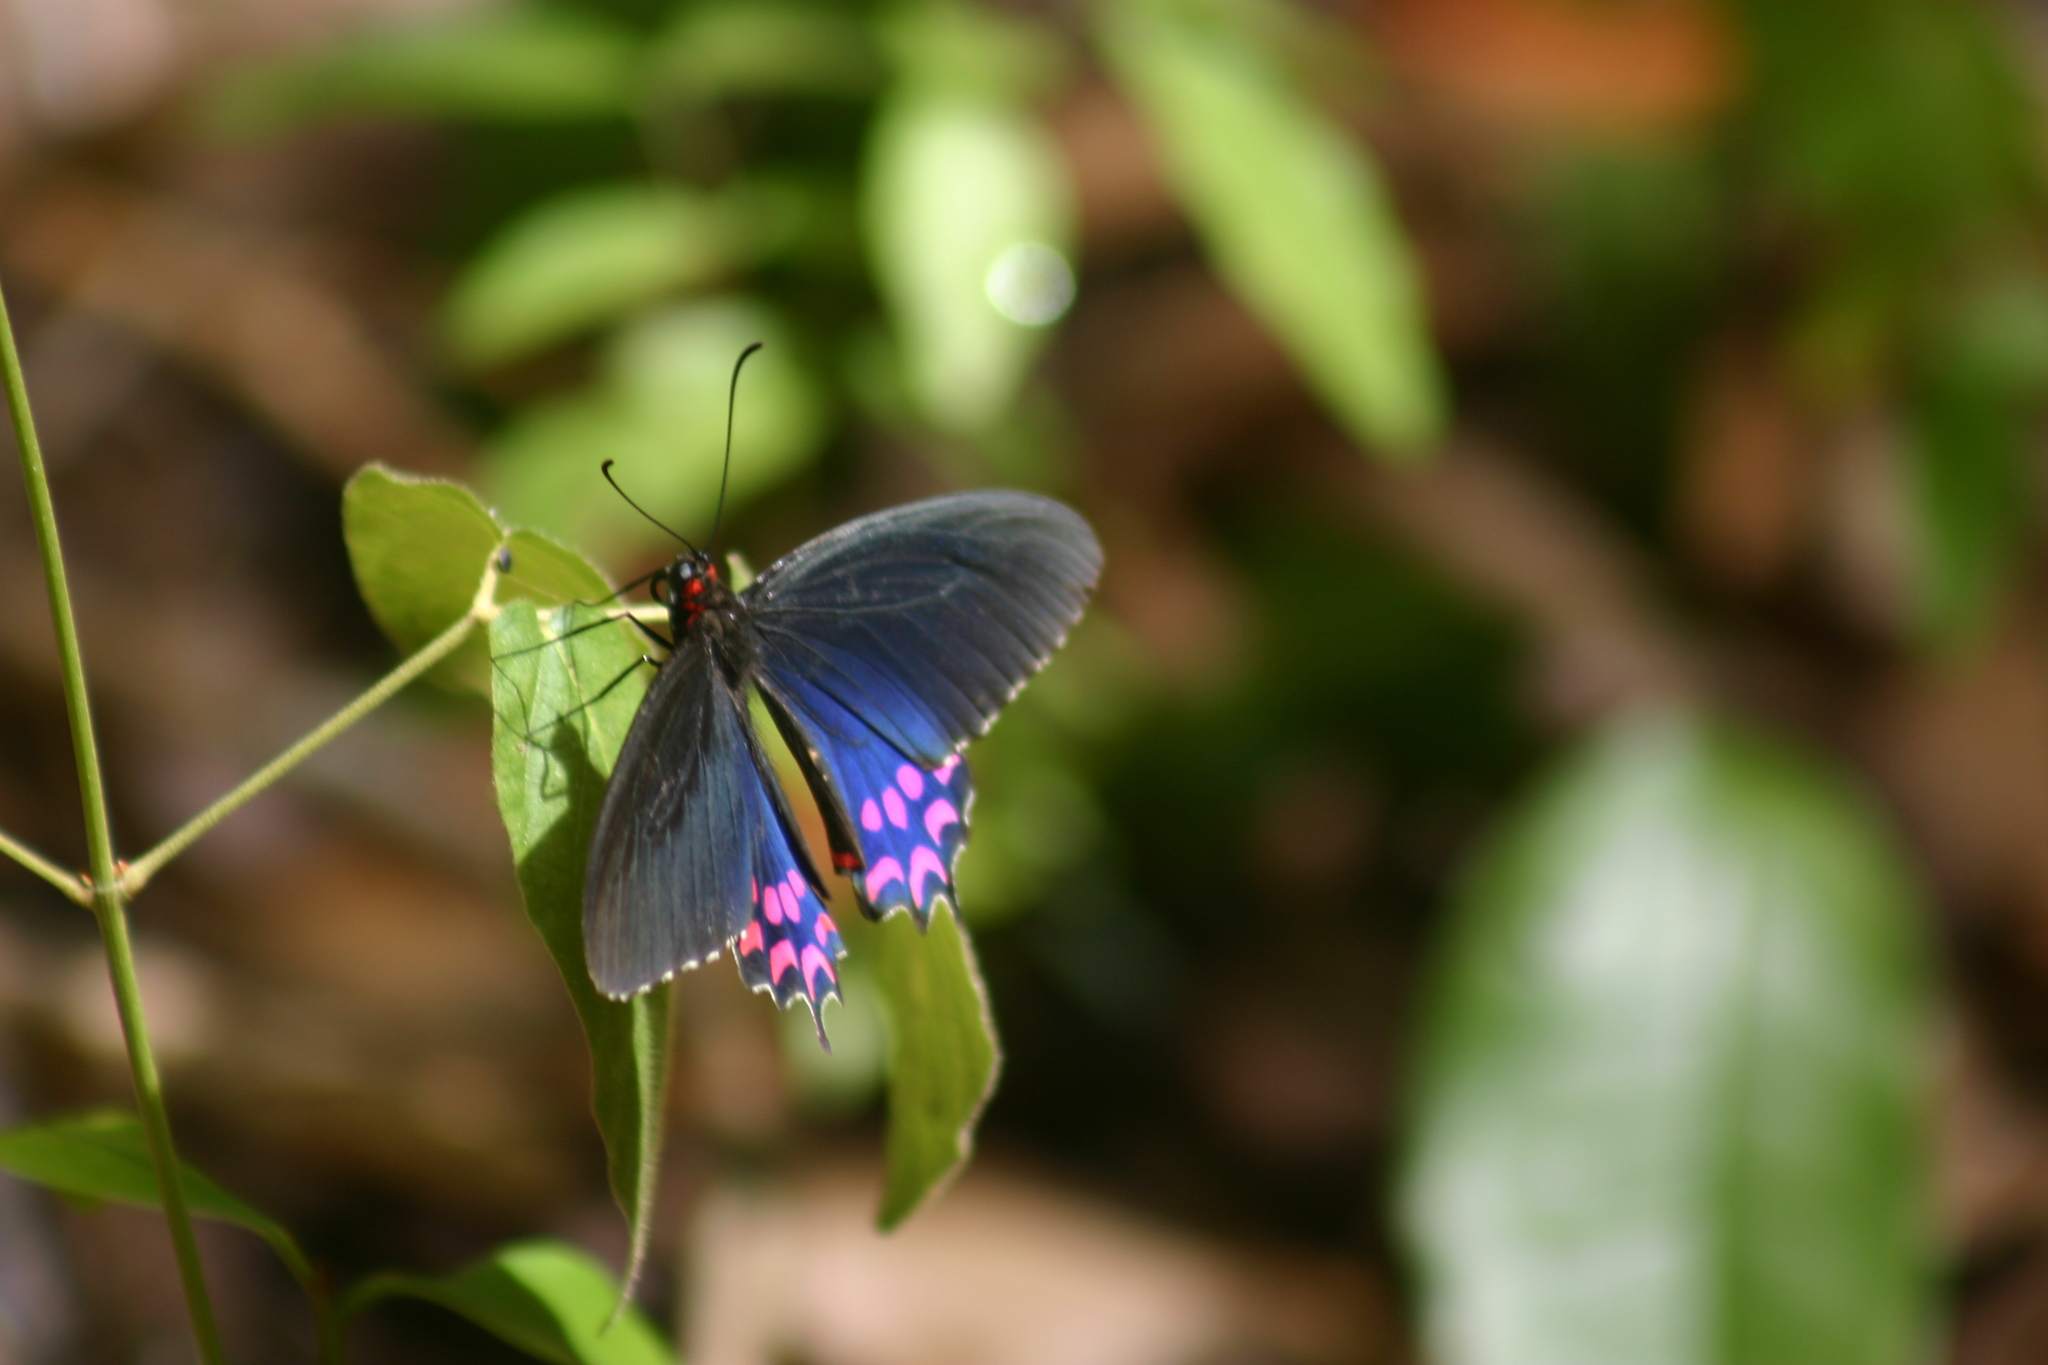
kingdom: Animalia
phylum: Arthropoda
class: Insecta
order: Lepidoptera
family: Papilionidae
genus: Parides
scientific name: Parides photinus
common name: Pink-spotted cattleheart
